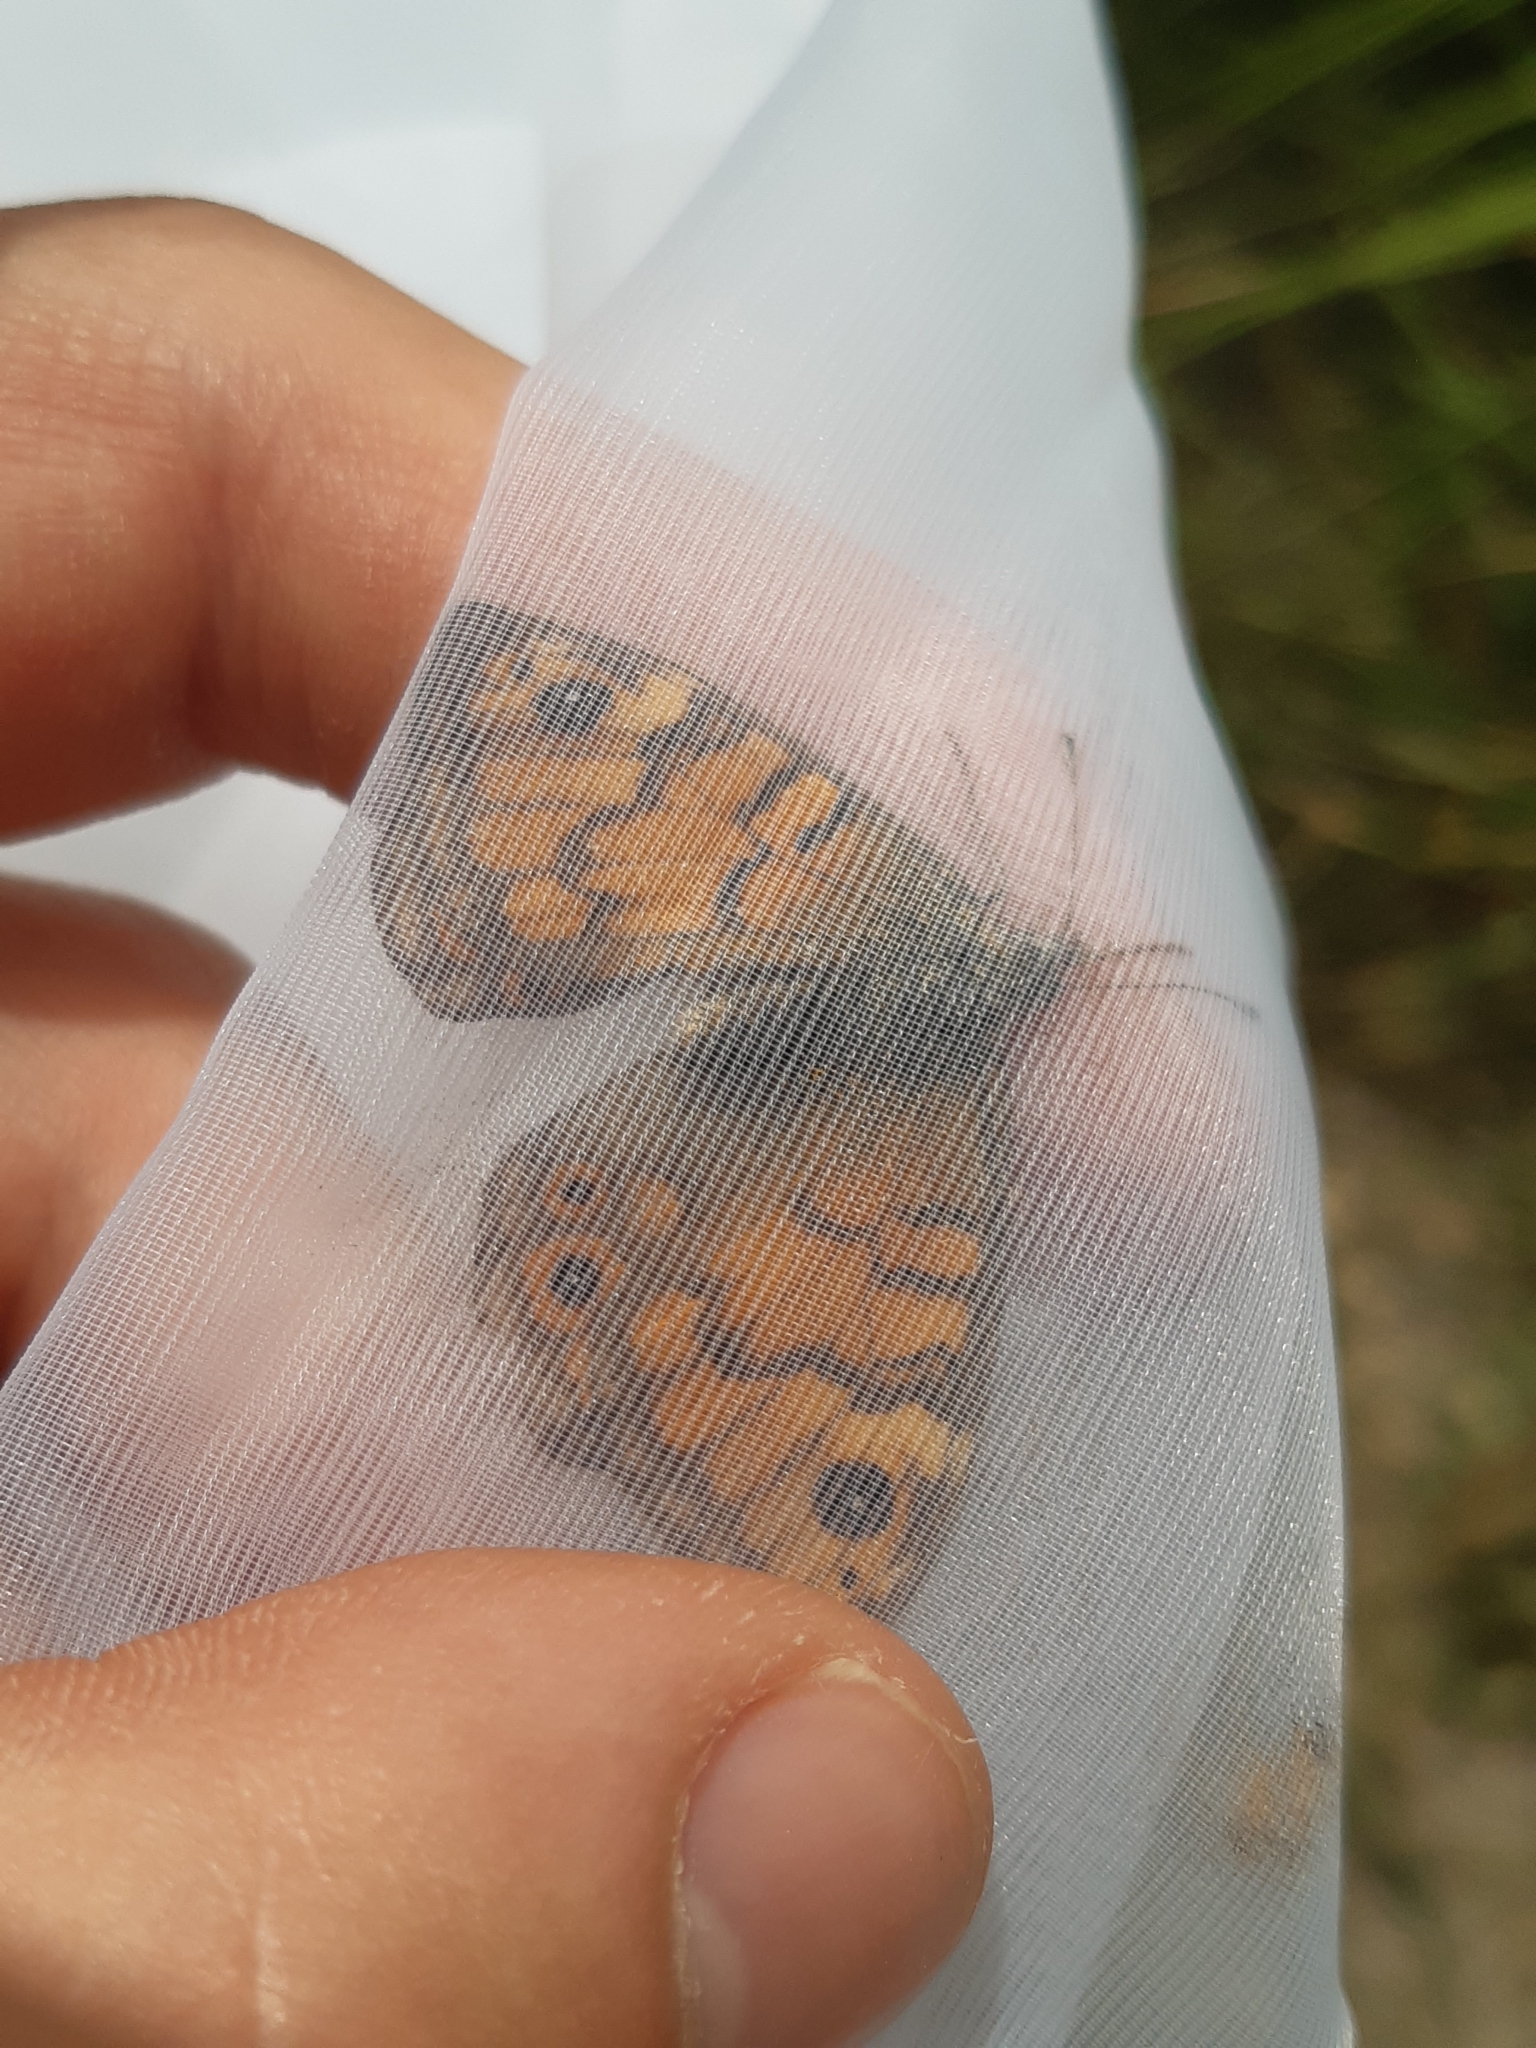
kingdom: Animalia
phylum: Arthropoda
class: Insecta
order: Lepidoptera
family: Nymphalidae
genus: Pararge
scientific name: Pararge Lasiommata megera
